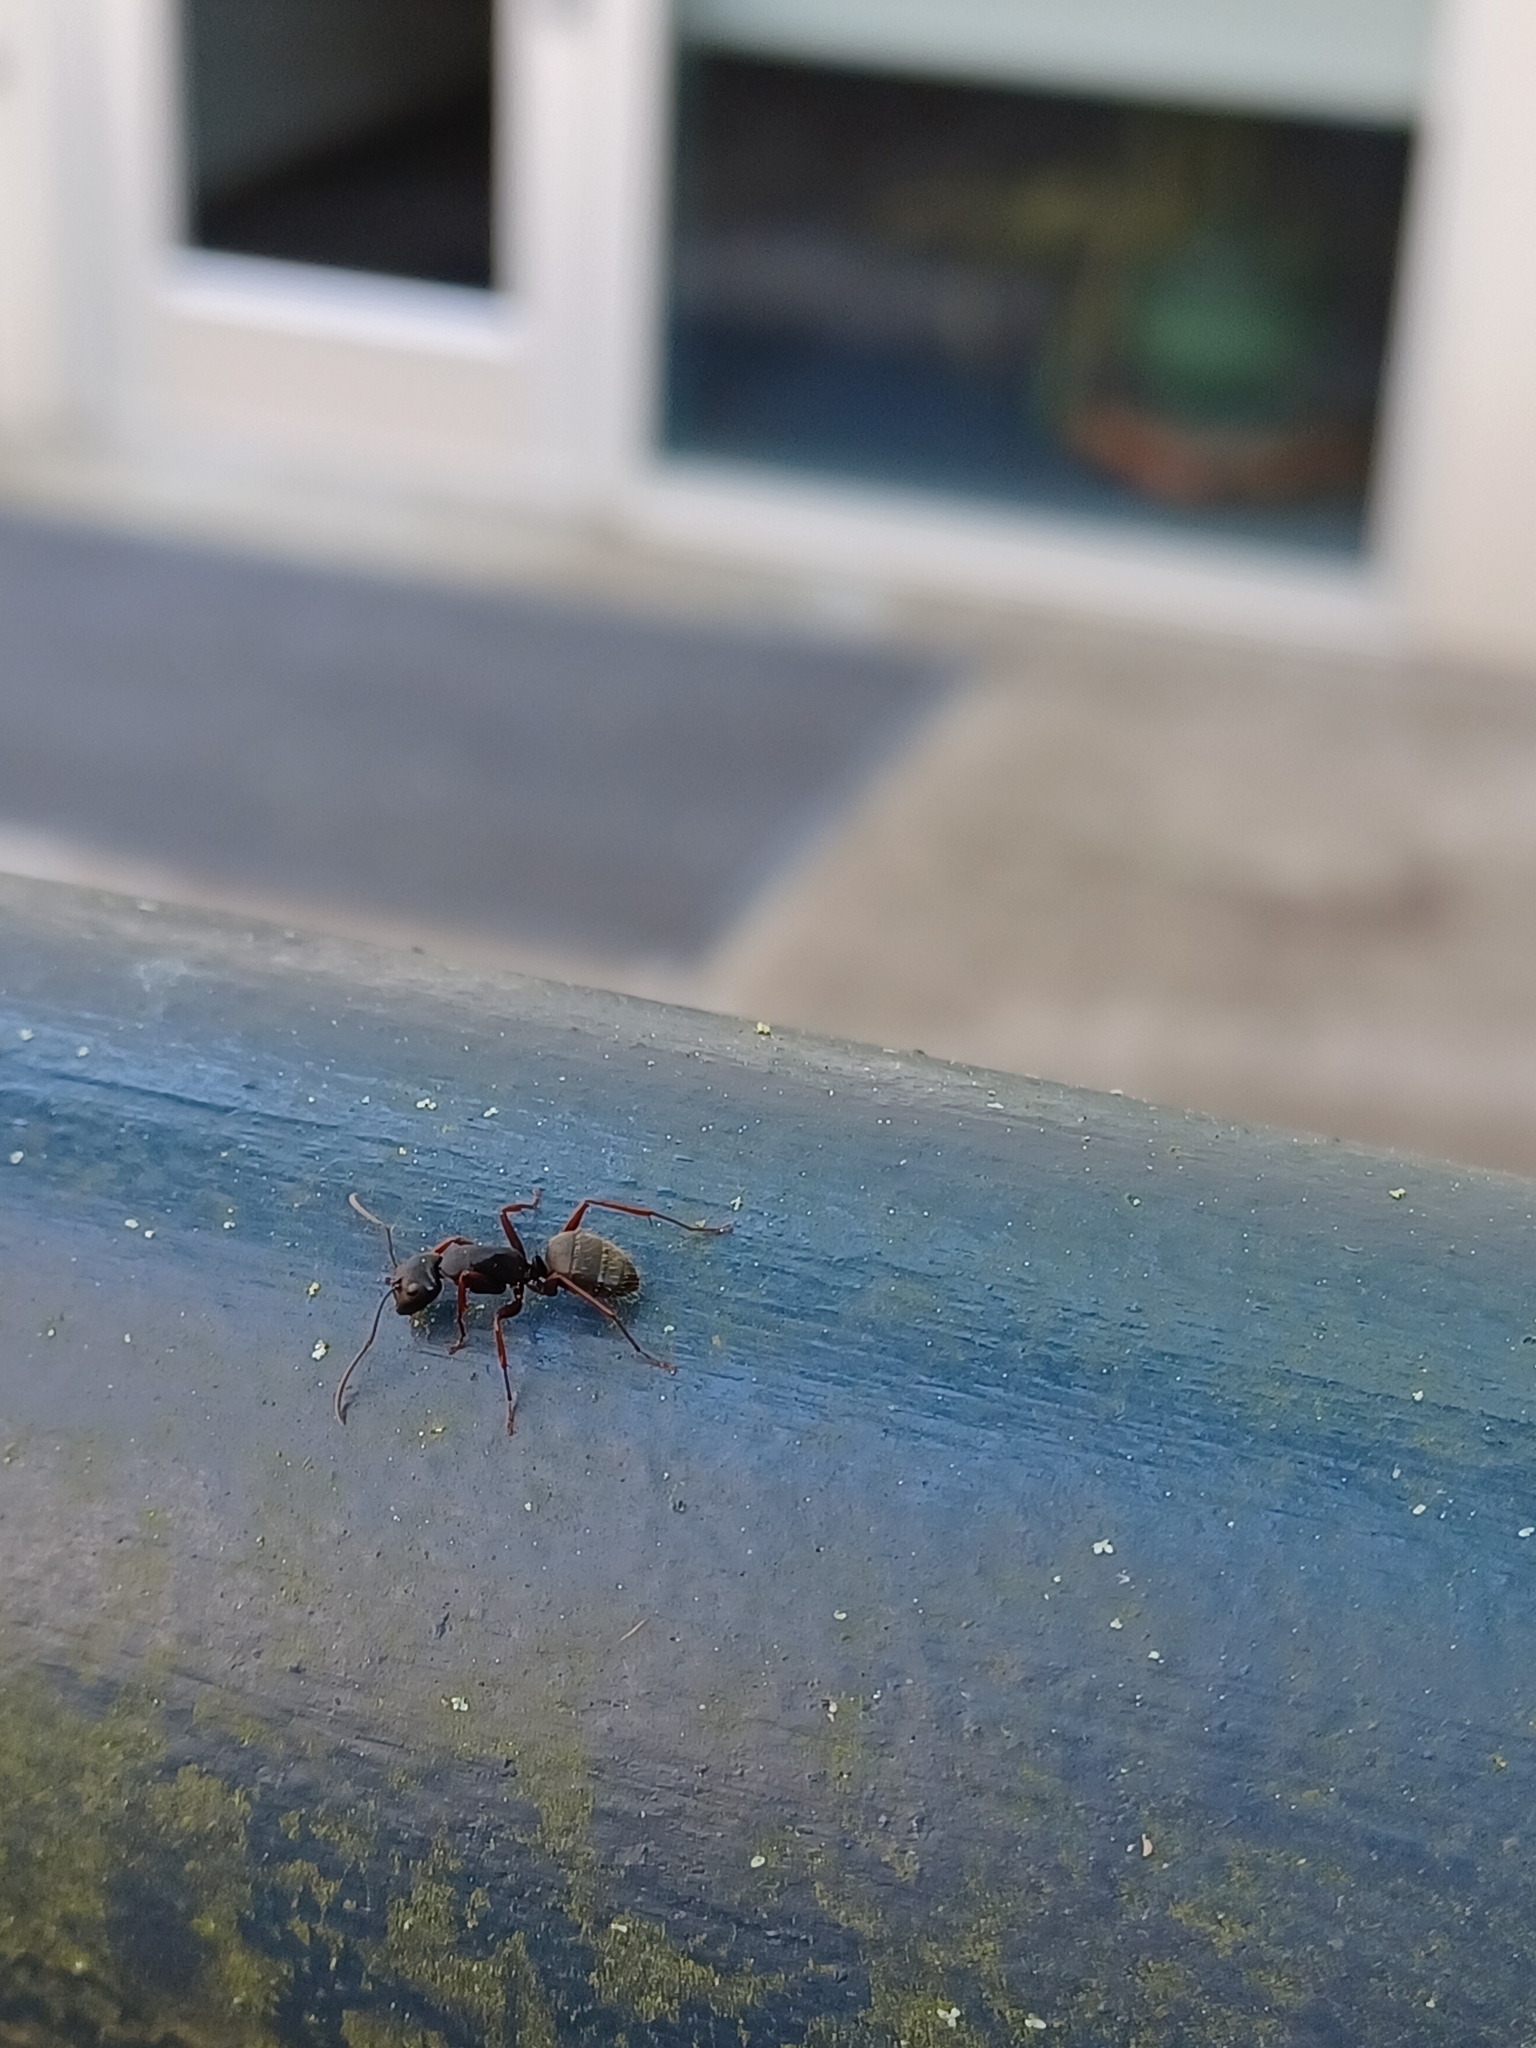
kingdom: Animalia
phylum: Arthropoda
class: Insecta
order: Hymenoptera
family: Formicidae
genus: Camponotus
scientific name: Camponotus modoc
